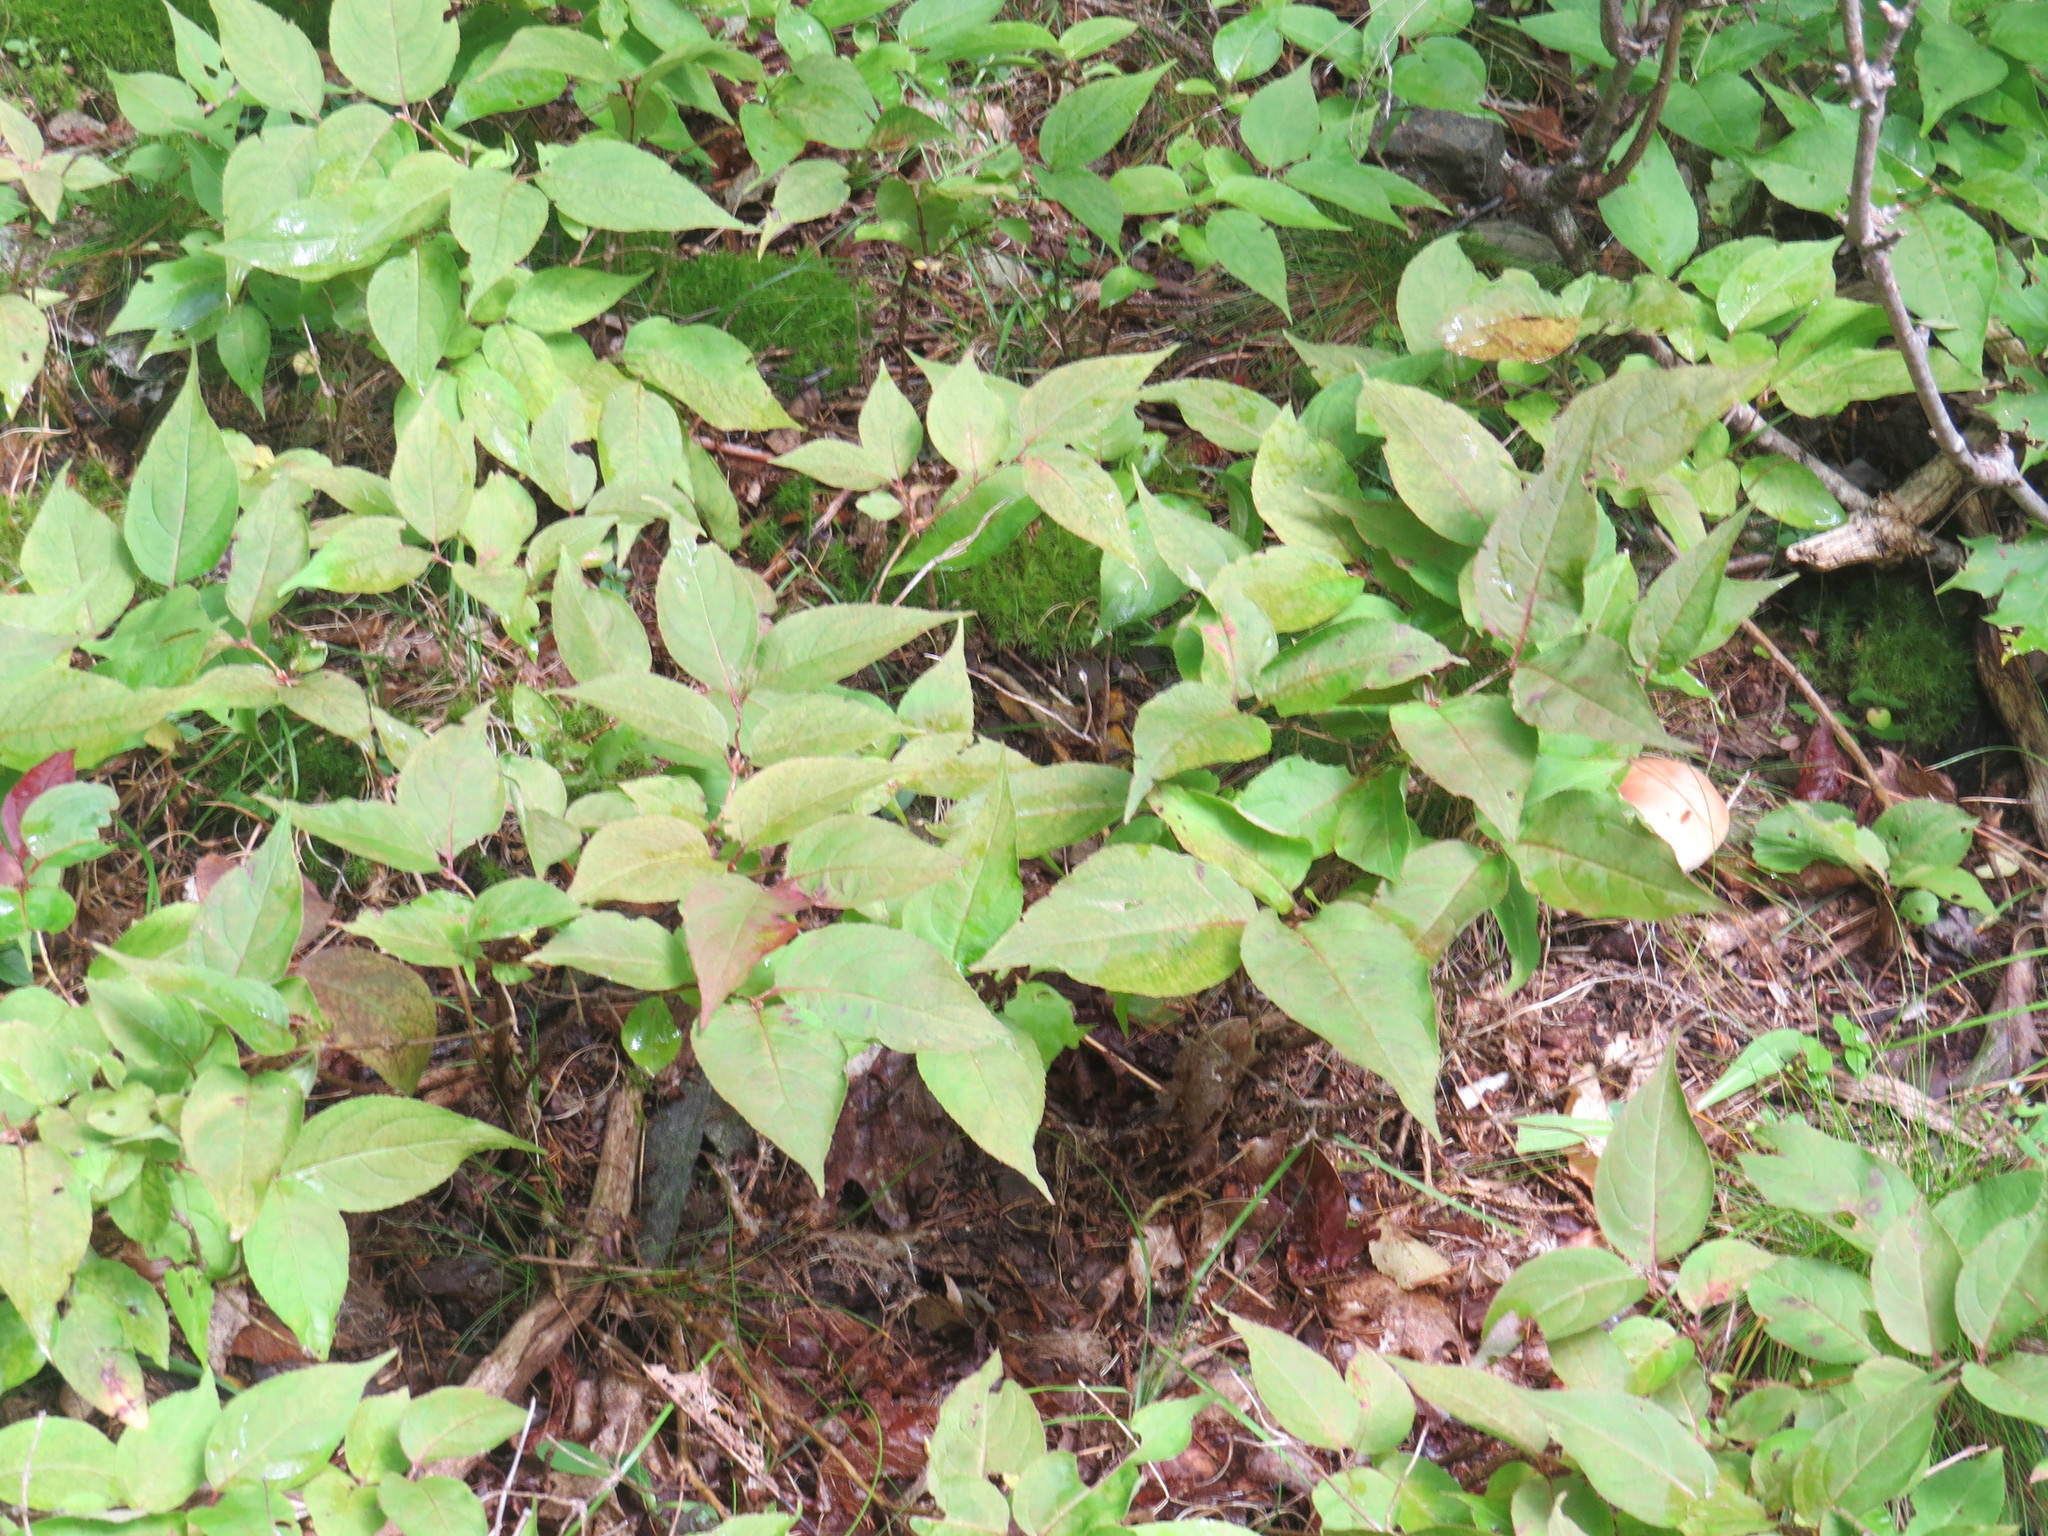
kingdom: Plantae
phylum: Tracheophyta
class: Magnoliopsida
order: Dipsacales
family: Caprifoliaceae
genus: Diervilla
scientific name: Diervilla lonicera
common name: Bush-honeysuckle
